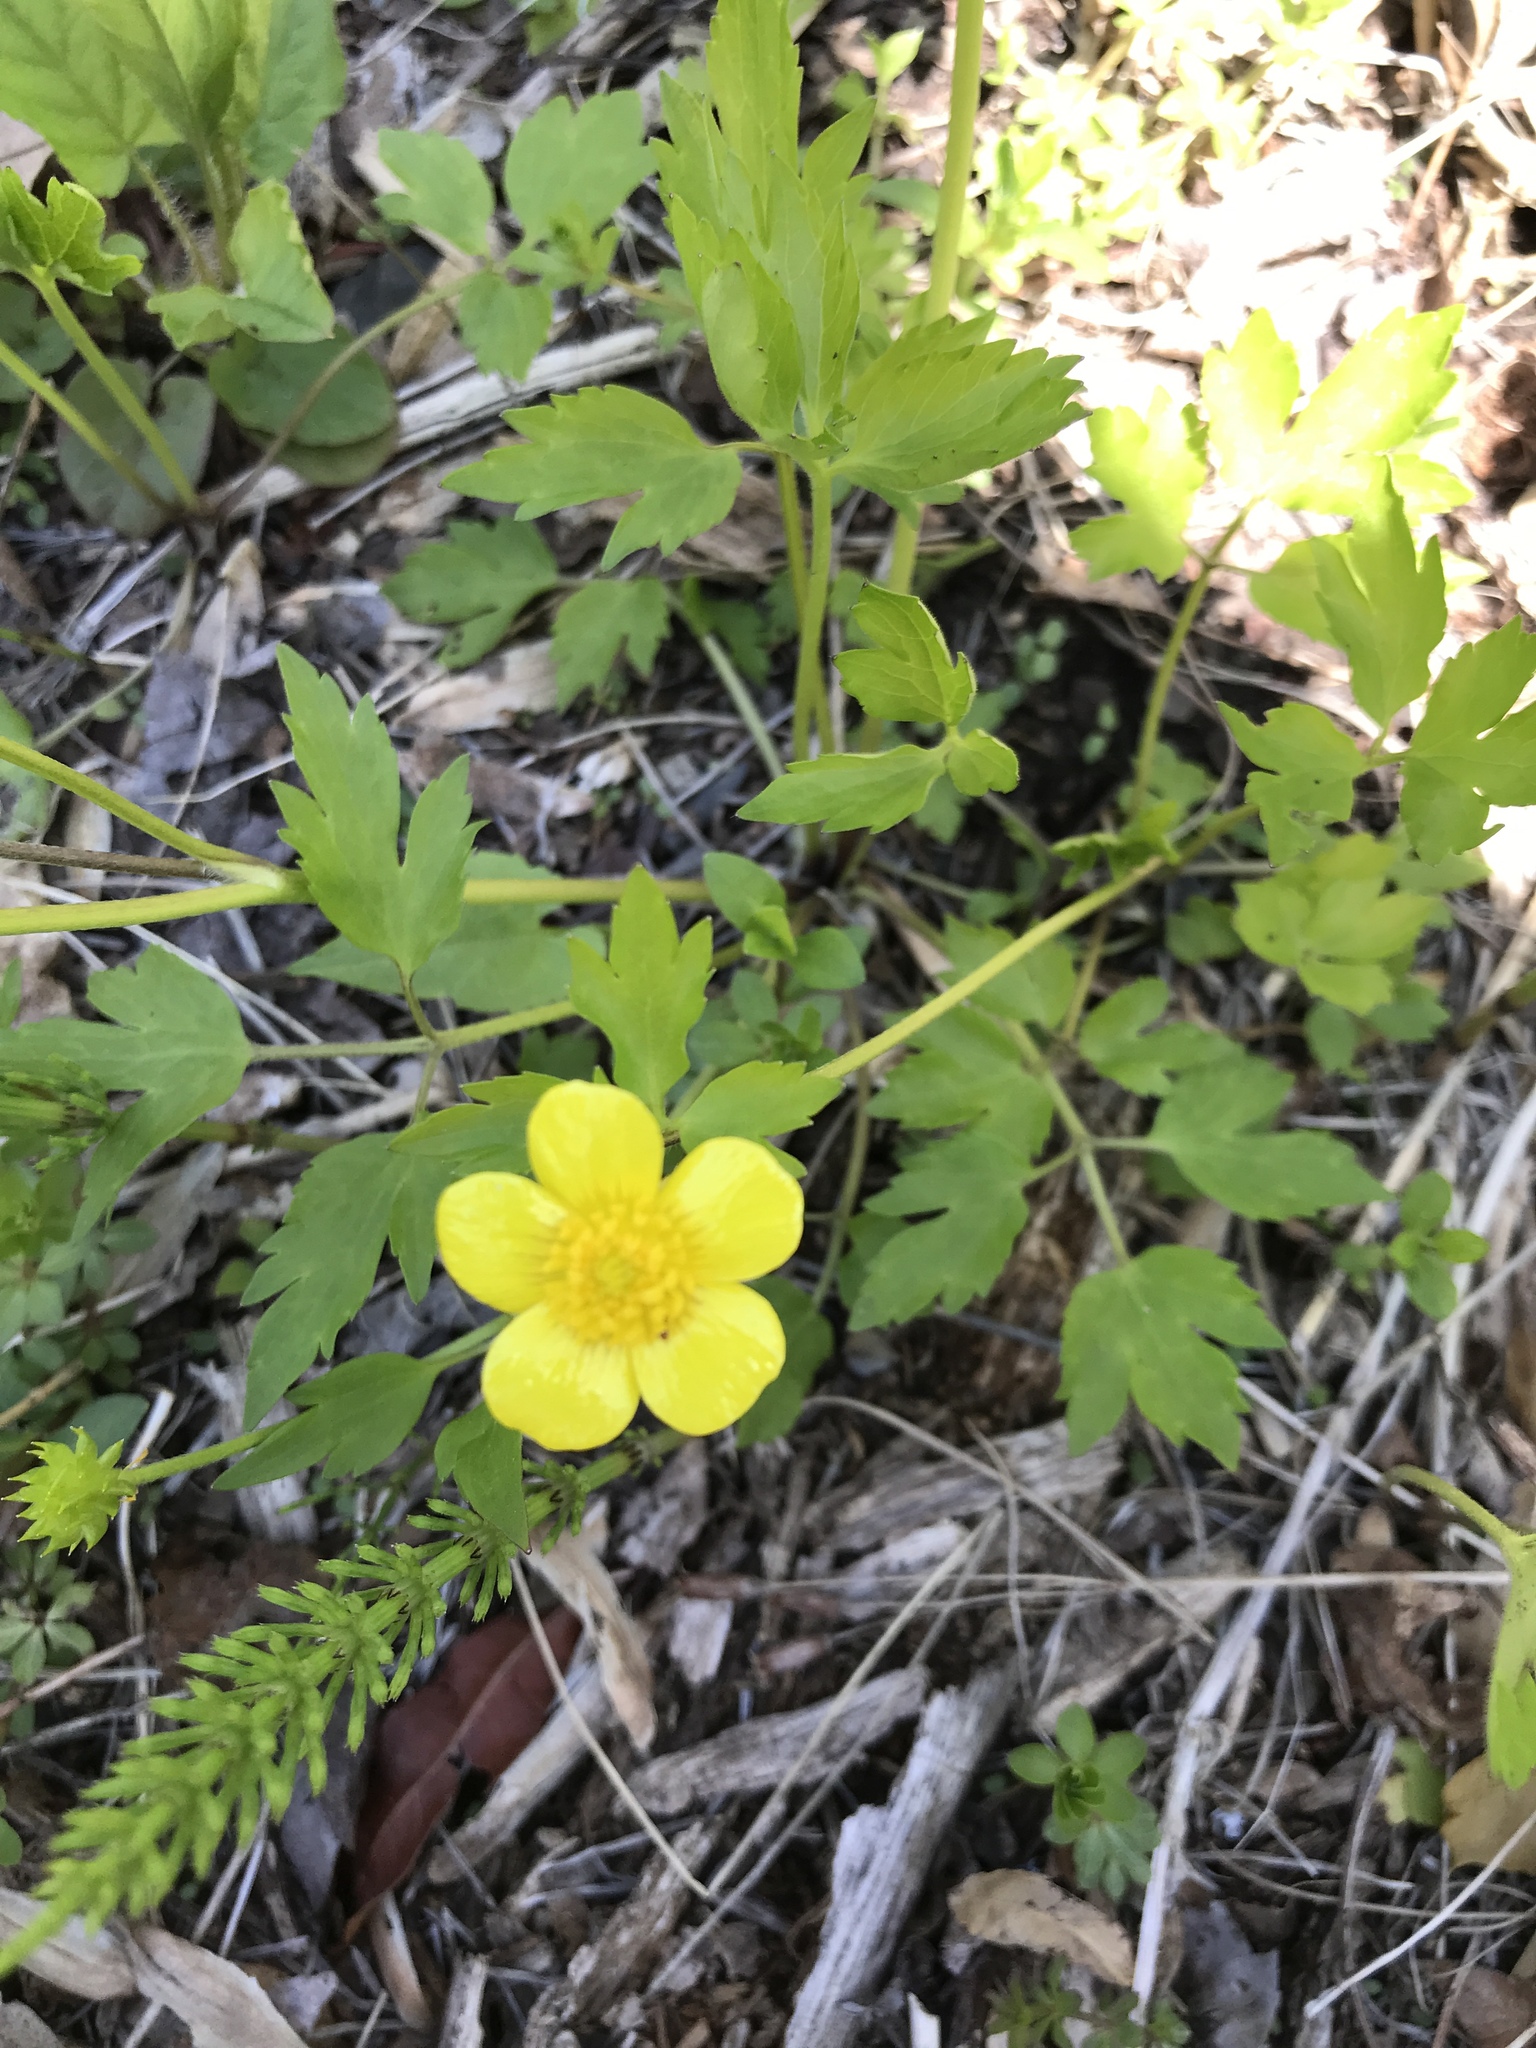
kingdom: Plantae
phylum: Tracheophyta
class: Magnoliopsida
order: Ranunculales
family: Ranunculaceae
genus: Ranunculus
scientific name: Ranunculus hispidus
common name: Bristly buttercup
